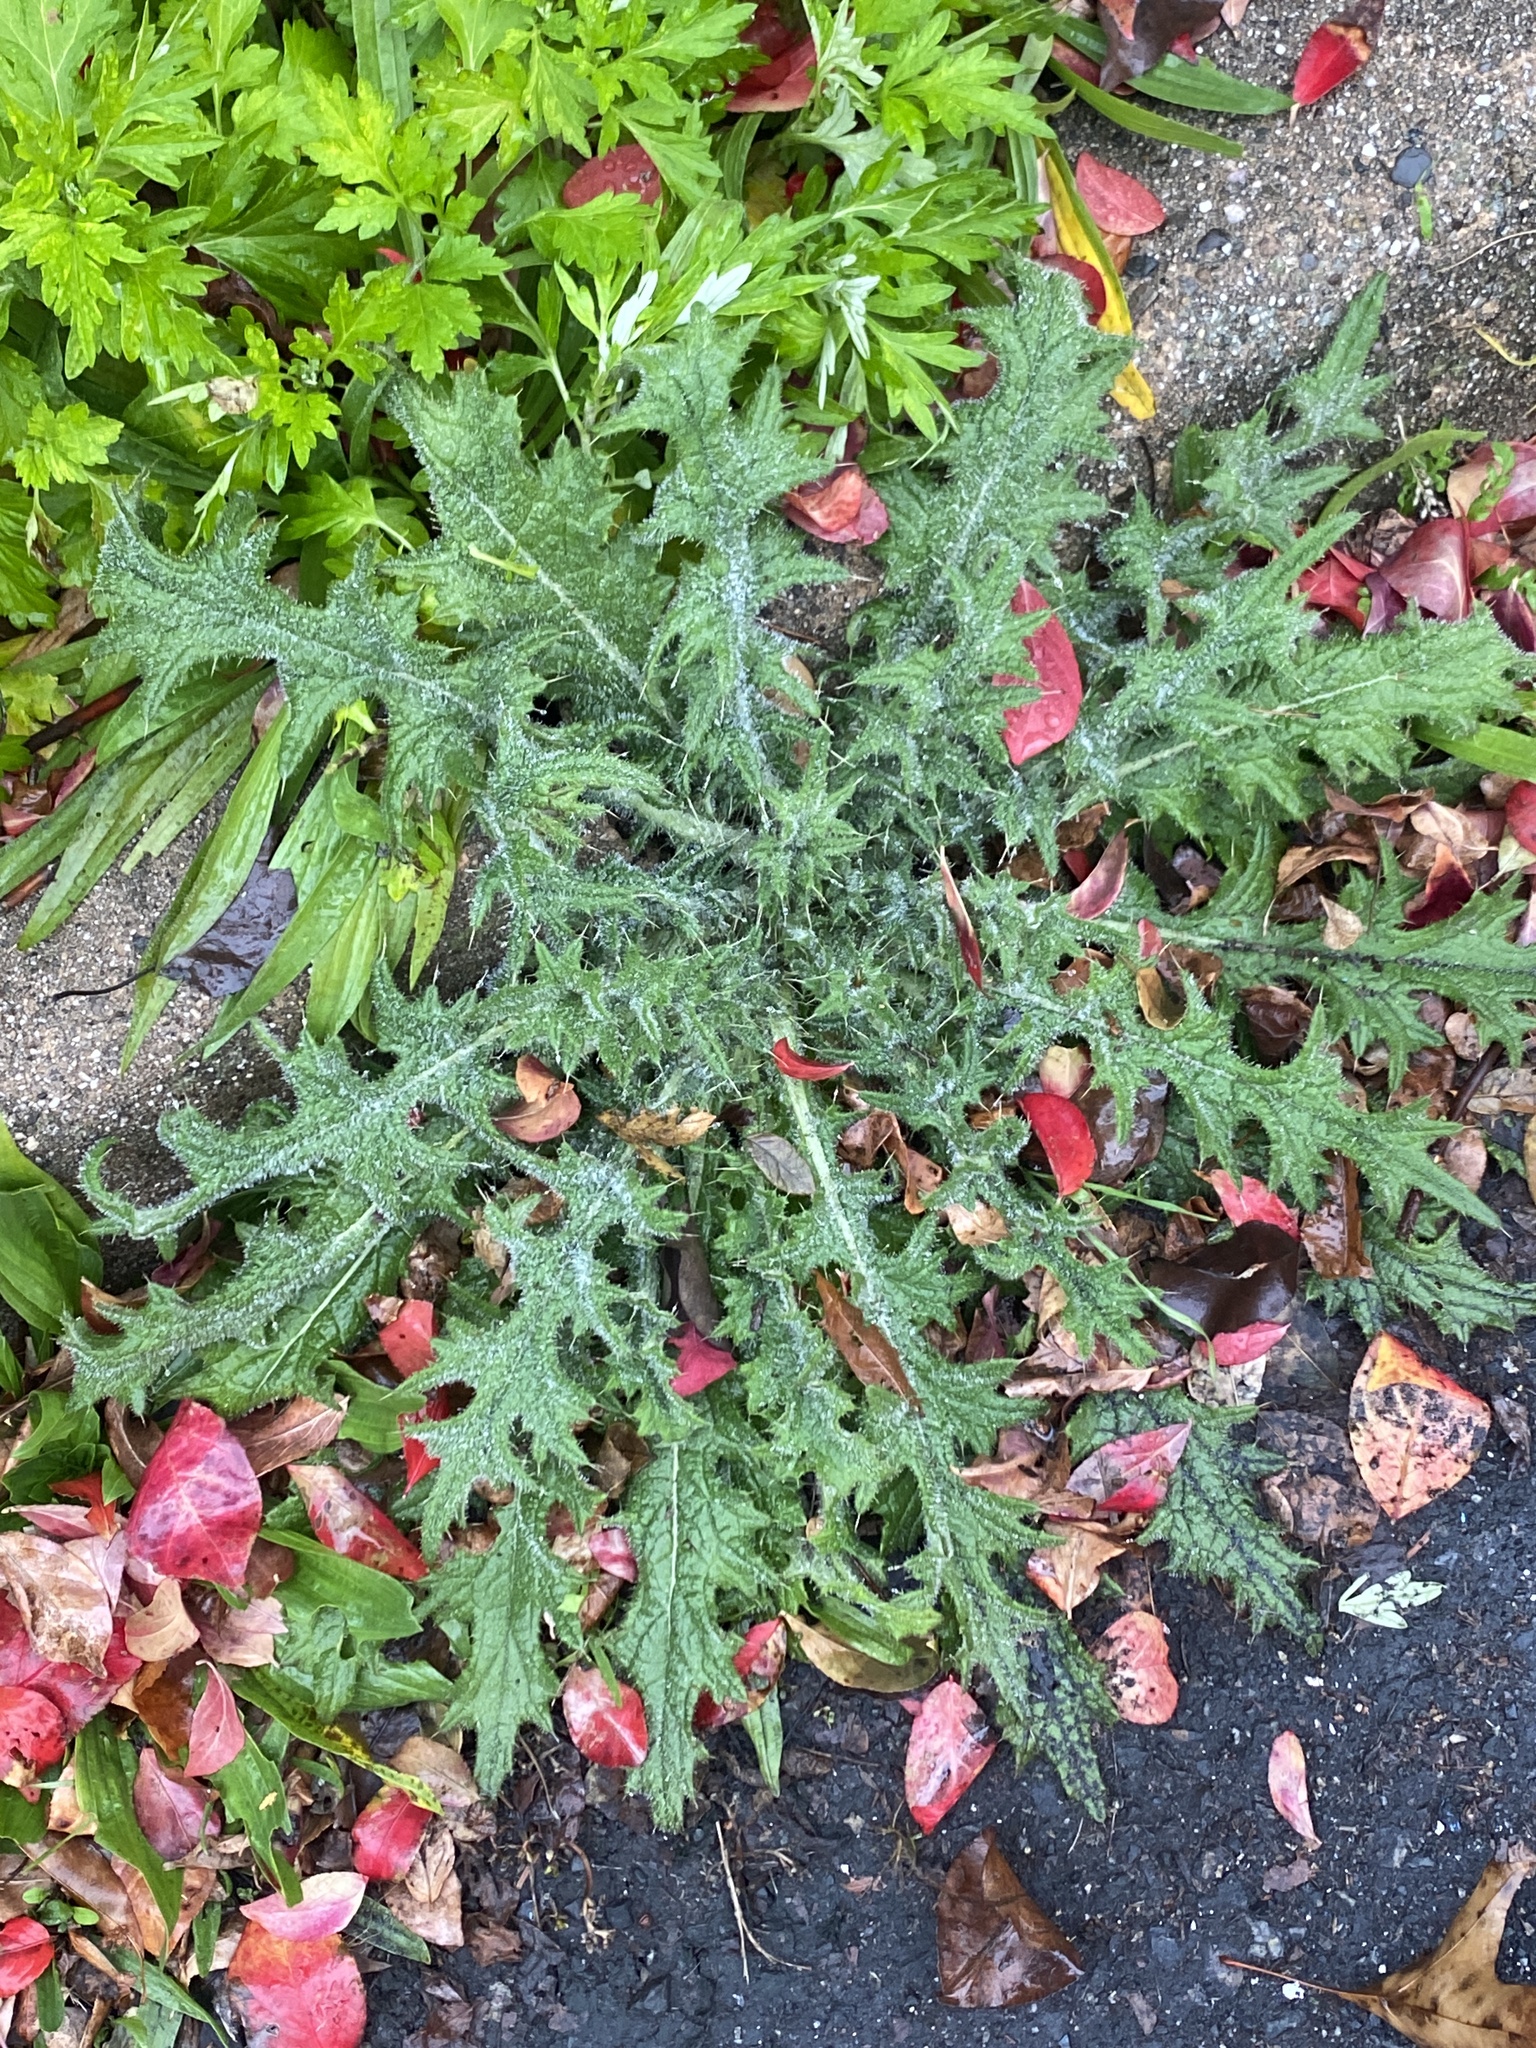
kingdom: Plantae
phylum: Tracheophyta
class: Magnoliopsida
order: Asterales
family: Asteraceae
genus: Cirsium
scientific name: Cirsium vulgare
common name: Bull thistle
